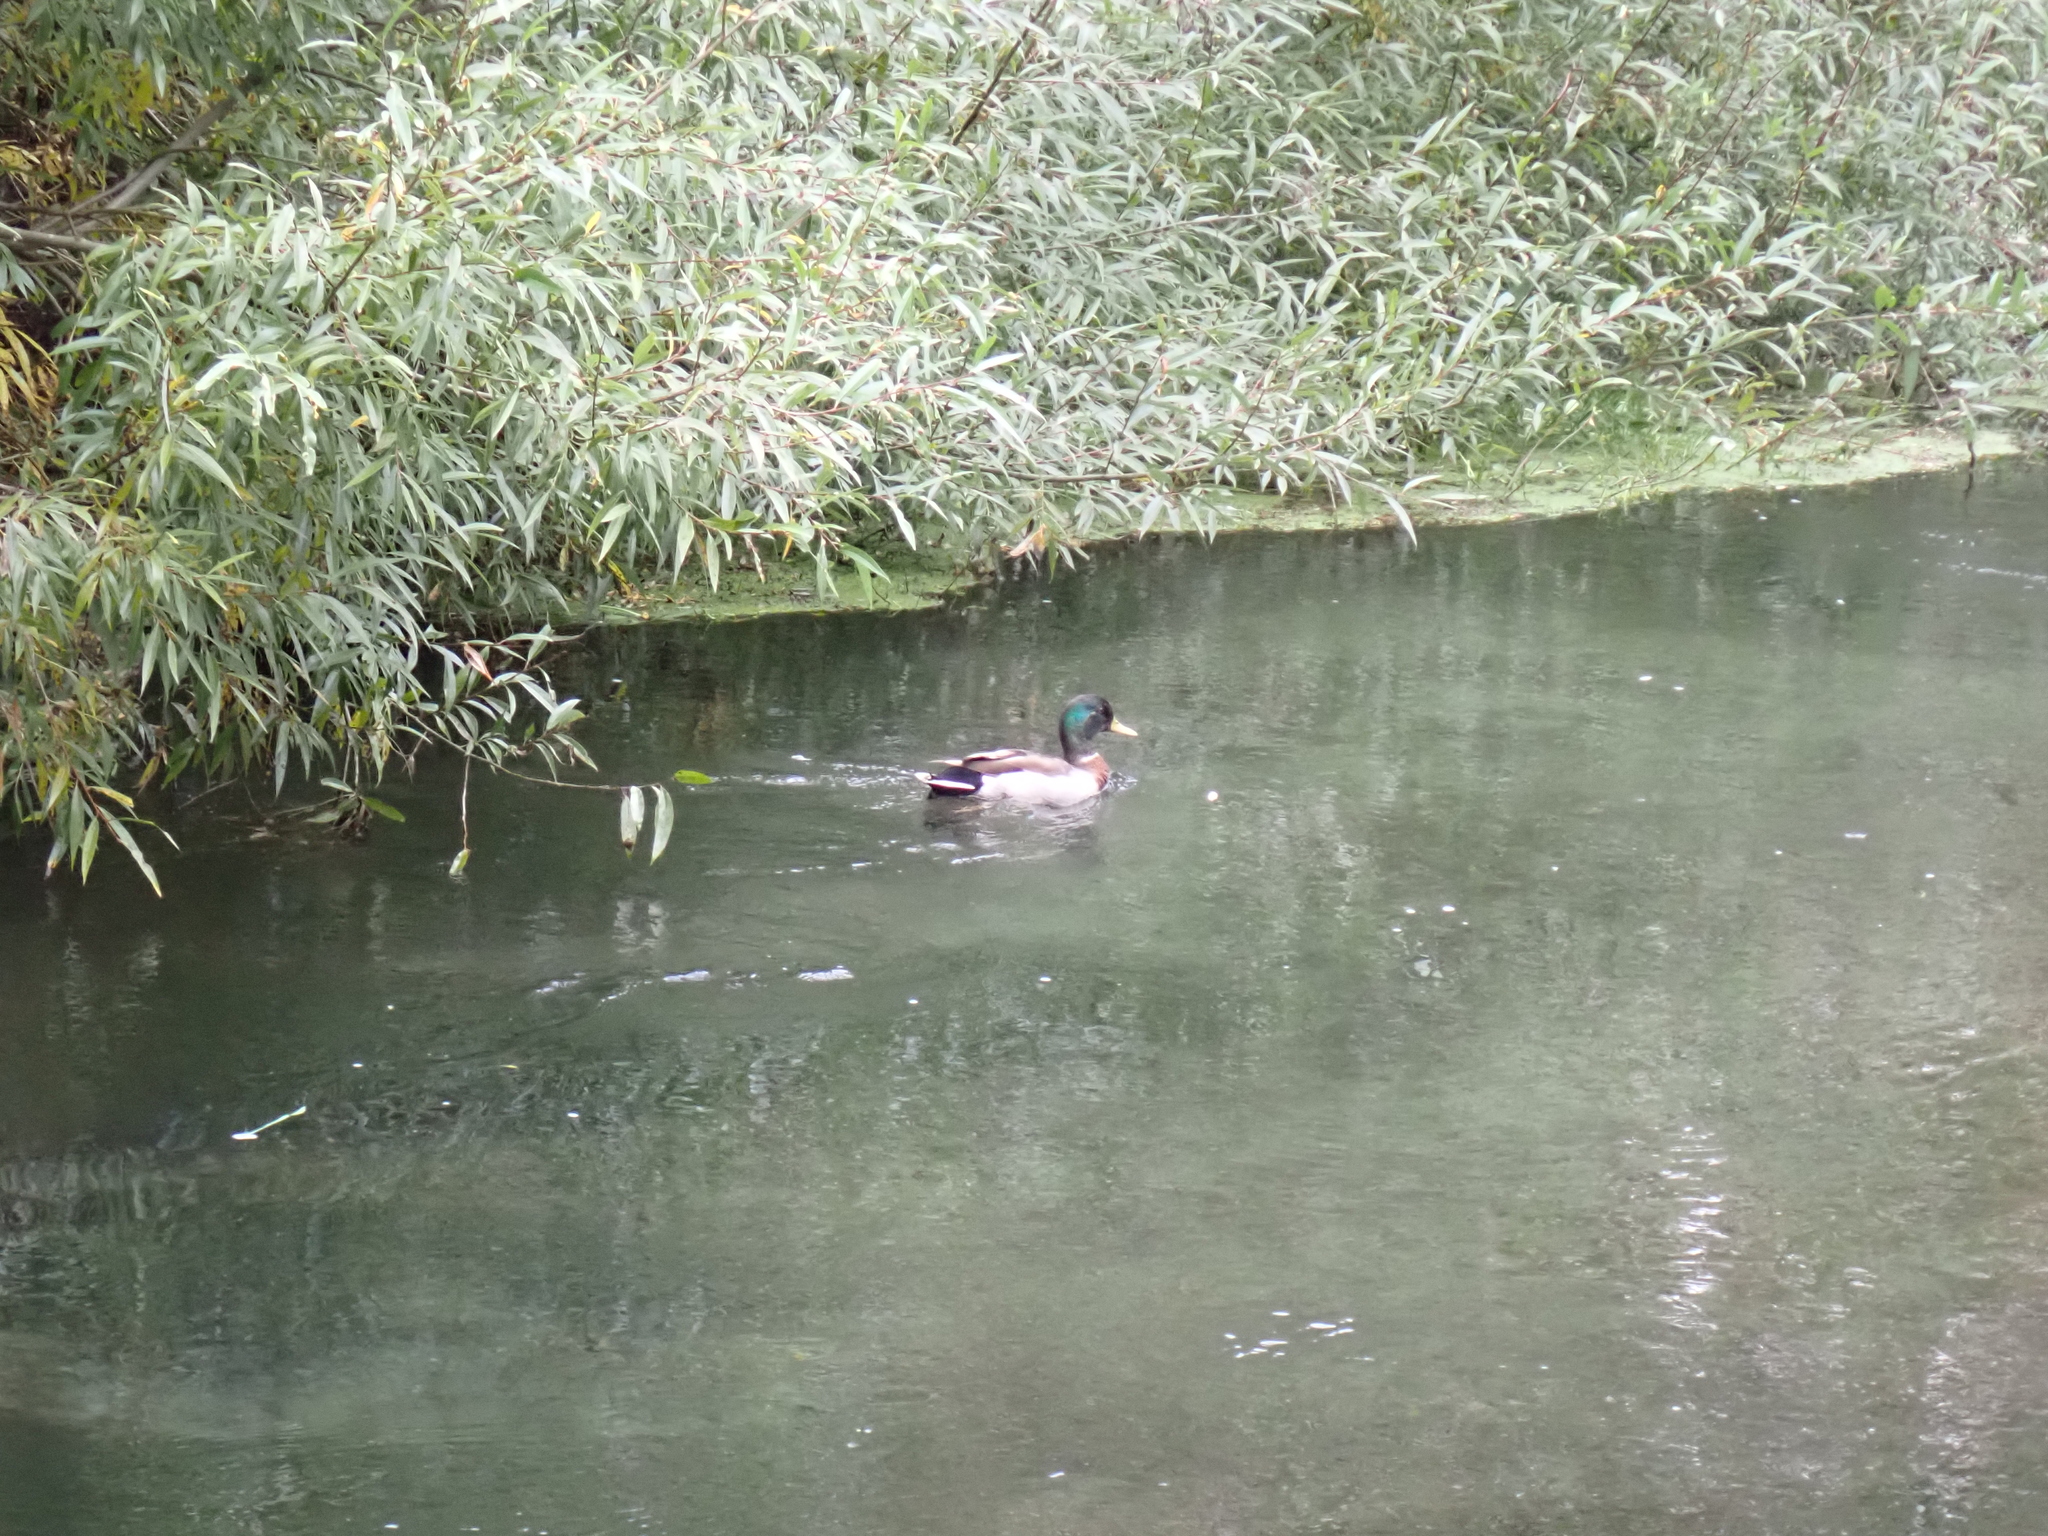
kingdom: Animalia
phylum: Chordata
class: Aves
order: Anseriformes
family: Anatidae
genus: Anas
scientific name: Anas platyrhynchos
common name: Mallard
